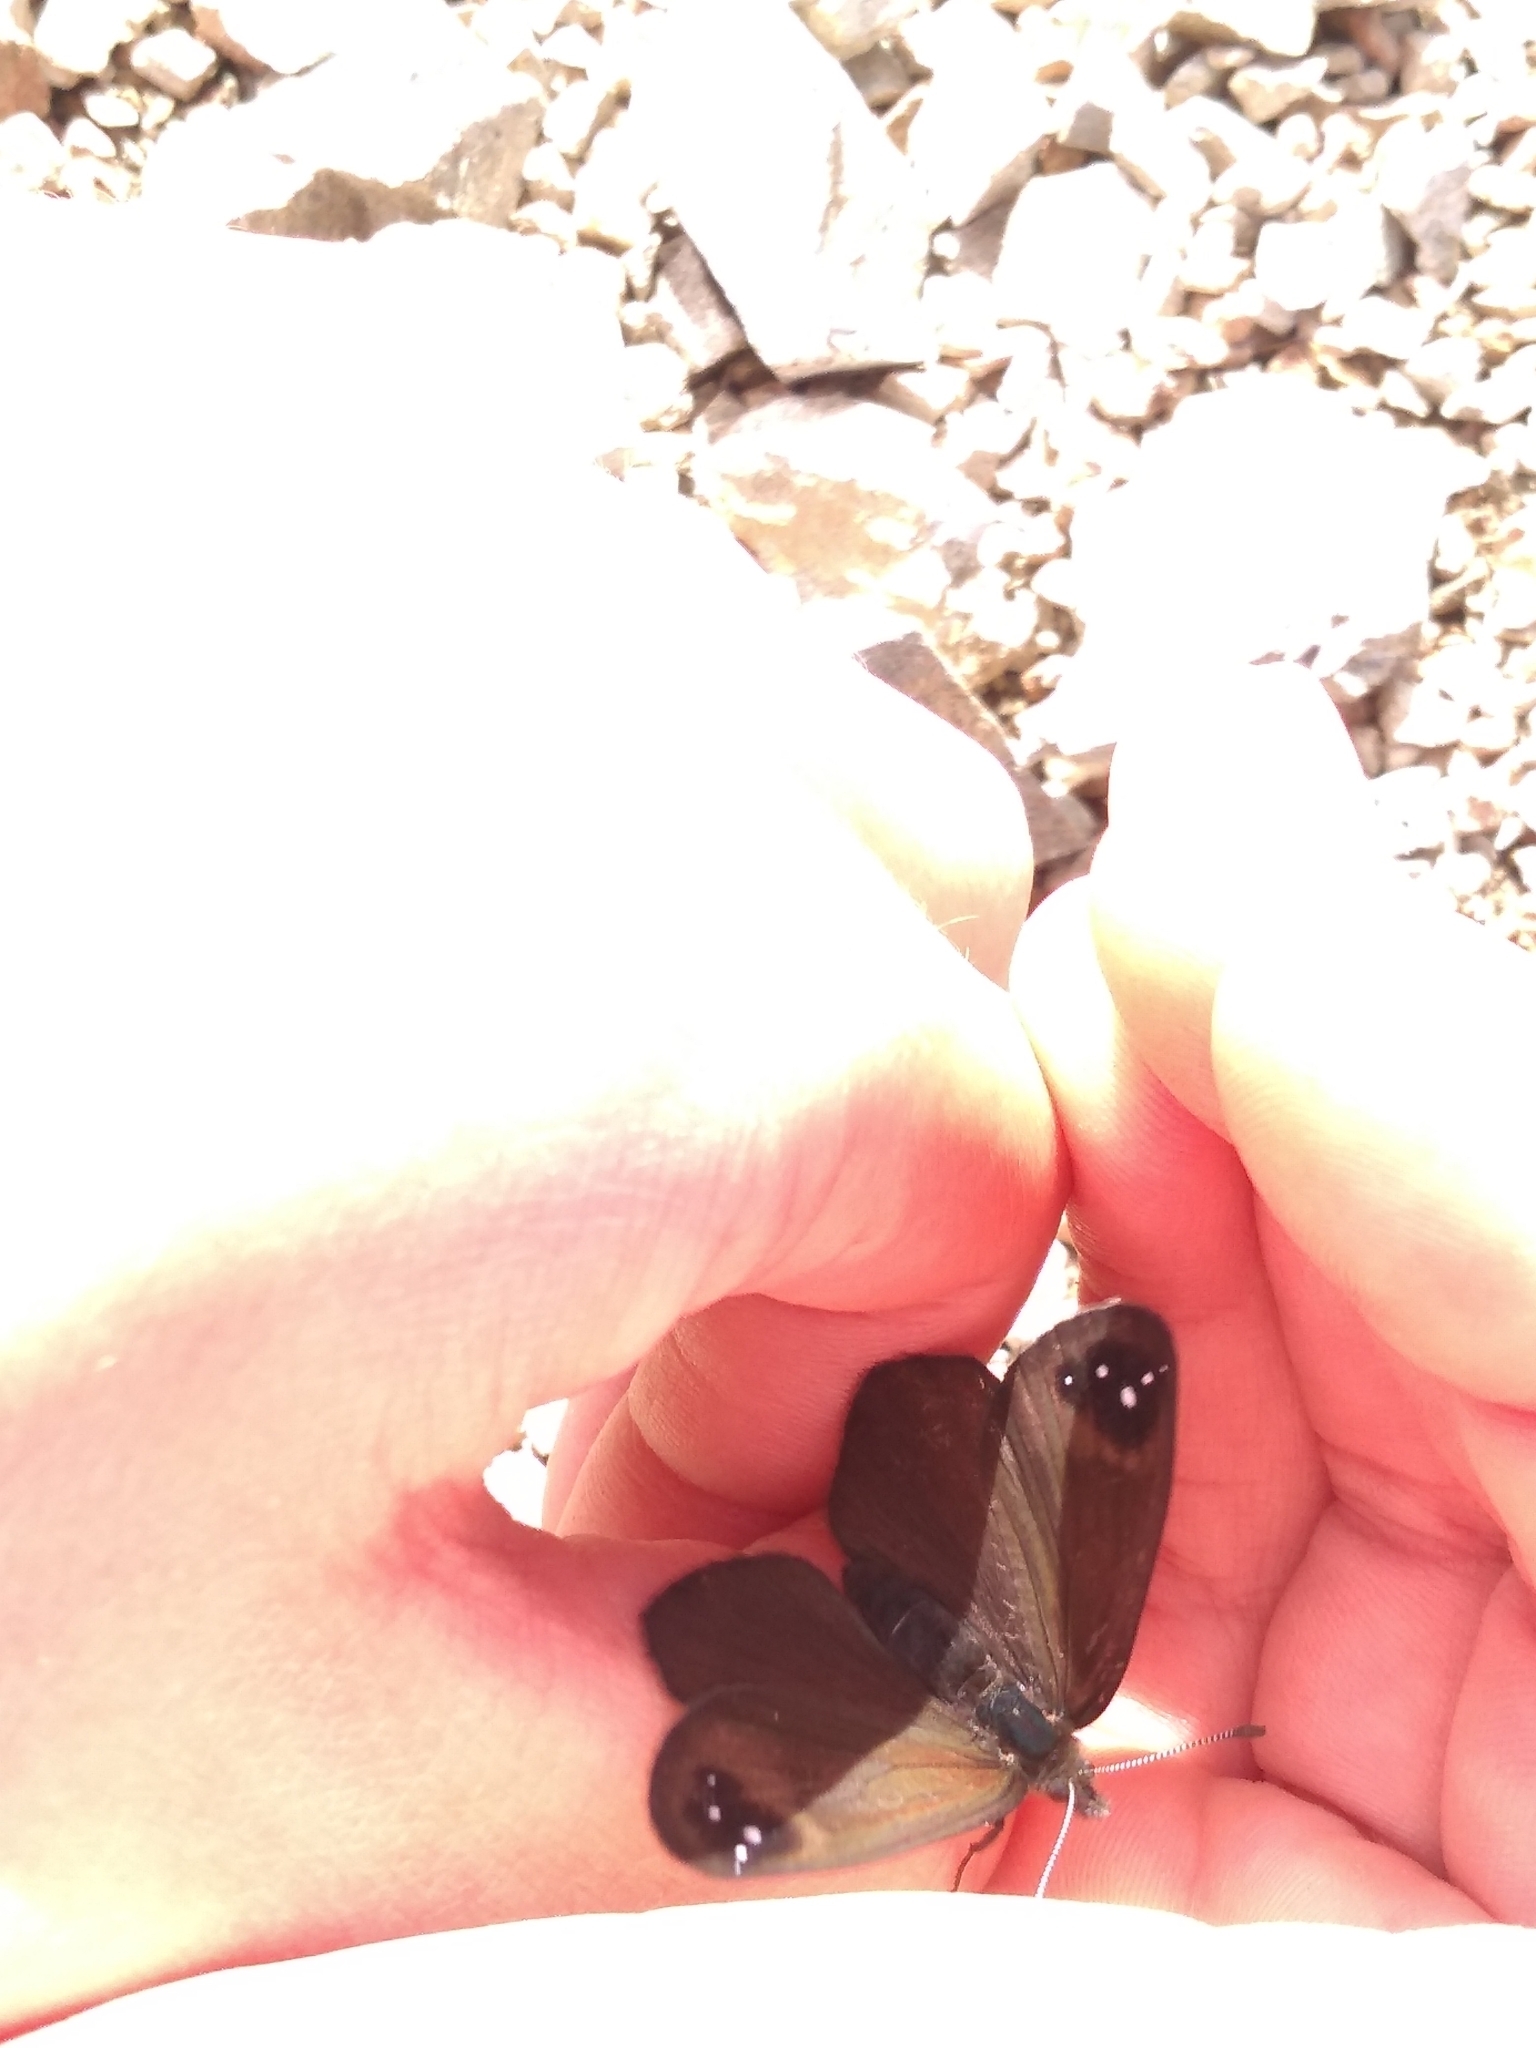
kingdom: Animalia
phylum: Arthropoda
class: Insecta
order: Lepidoptera
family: Nymphalidae
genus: Erebia
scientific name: Erebia Percnodaimon merula
